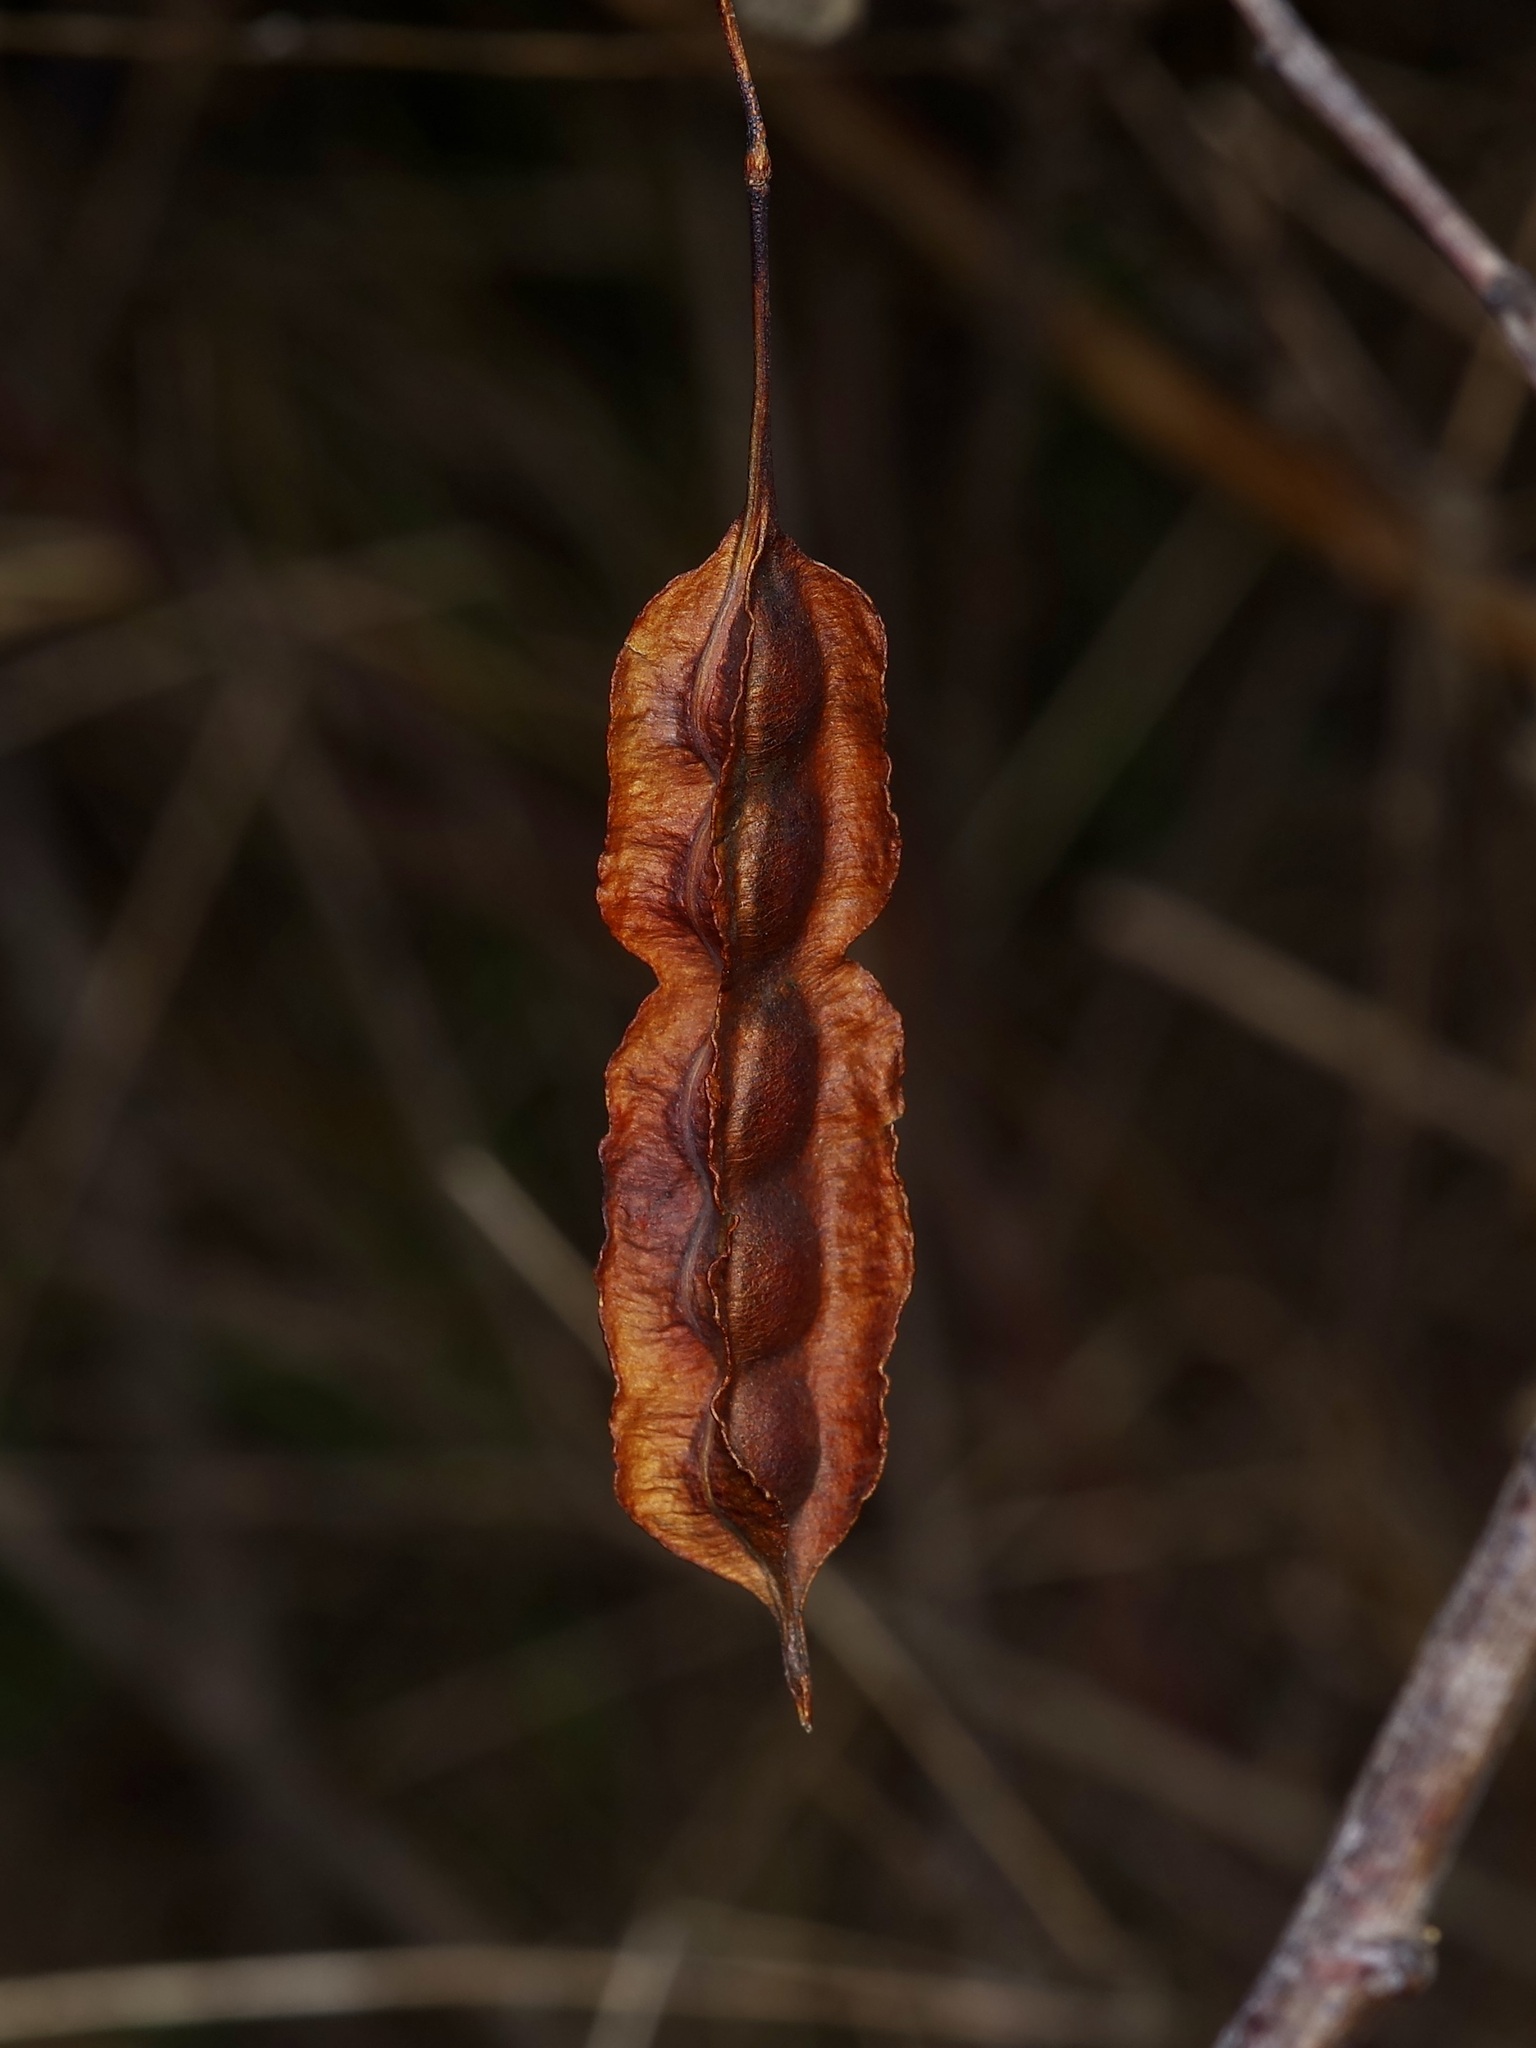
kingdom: Plantae
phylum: Tracheophyta
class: Magnoliopsida
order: Fabales
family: Fabaceae
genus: Sesbania
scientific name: Sesbania drummondii
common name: Poison-bean
